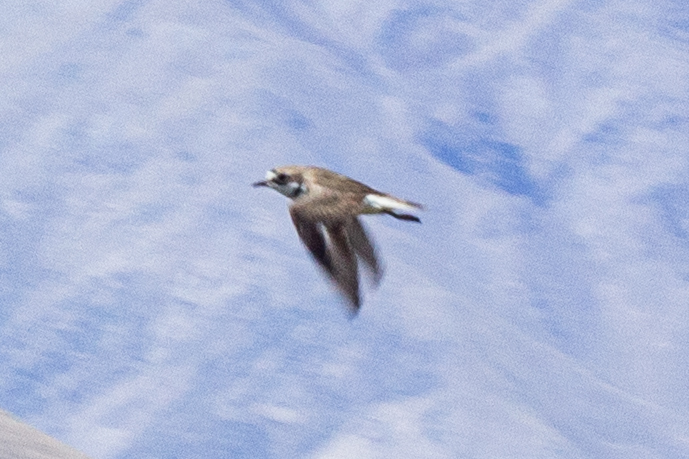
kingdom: Animalia
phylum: Chordata
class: Aves
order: Charadriiformes
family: Charadriidae
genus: Anarhynchus
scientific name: Anarhynchus
